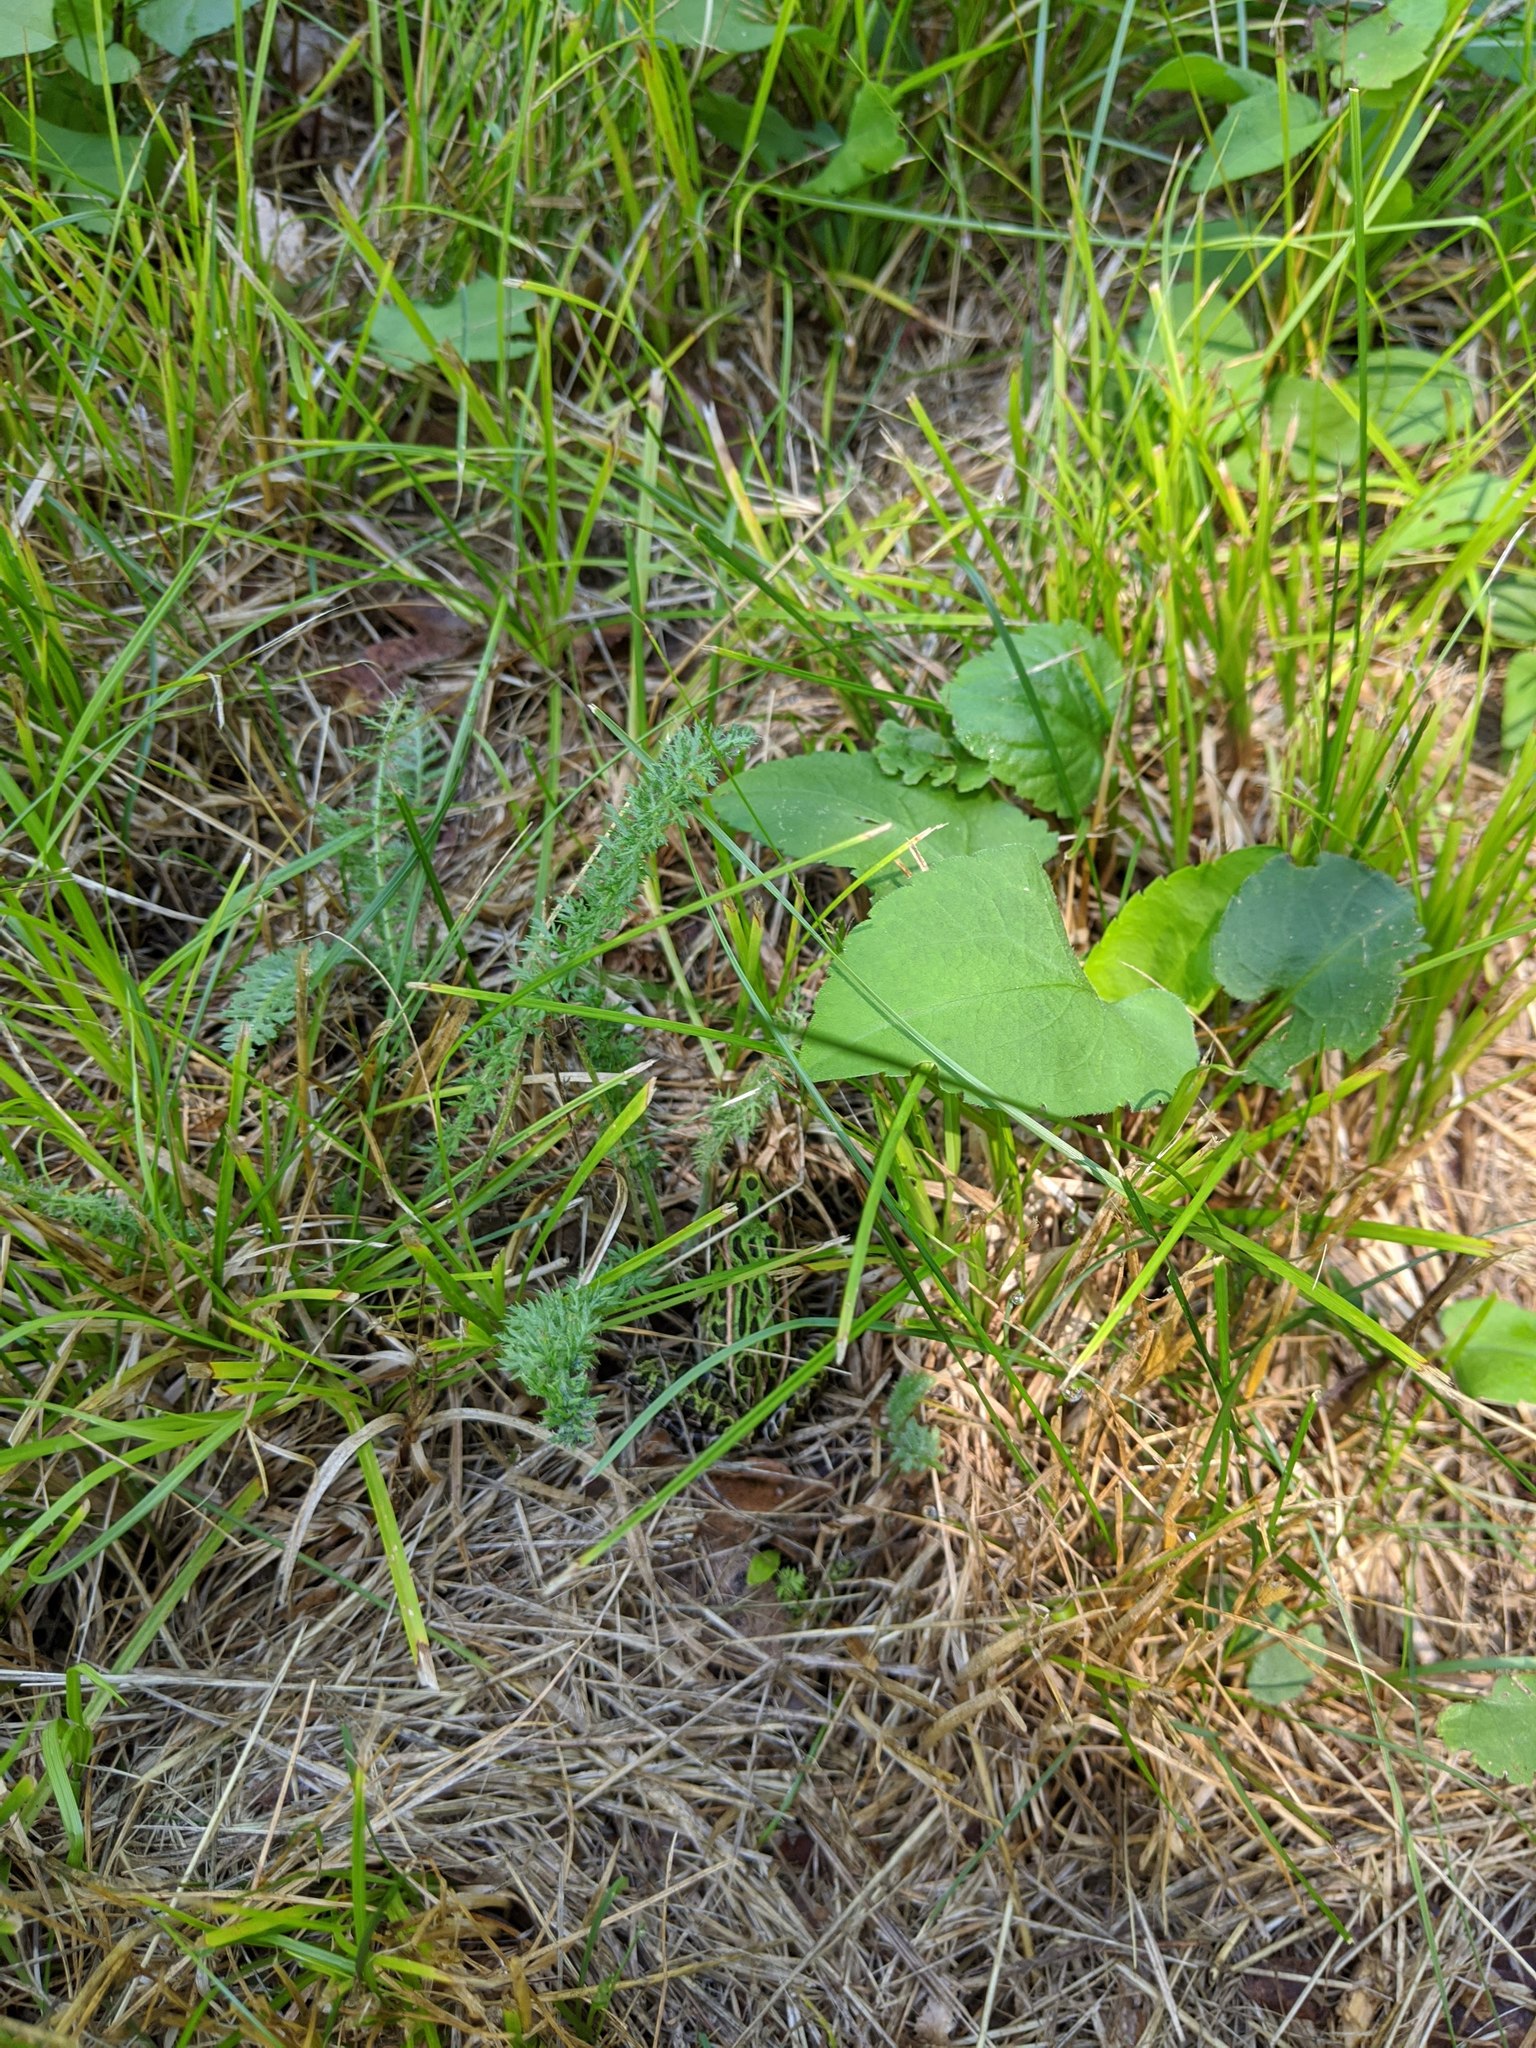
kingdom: Animalia
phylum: Chordata
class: Amphibia
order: Anura
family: Ranidae
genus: Lithobates
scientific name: Lithobates pipiens
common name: Northern leopard frog
